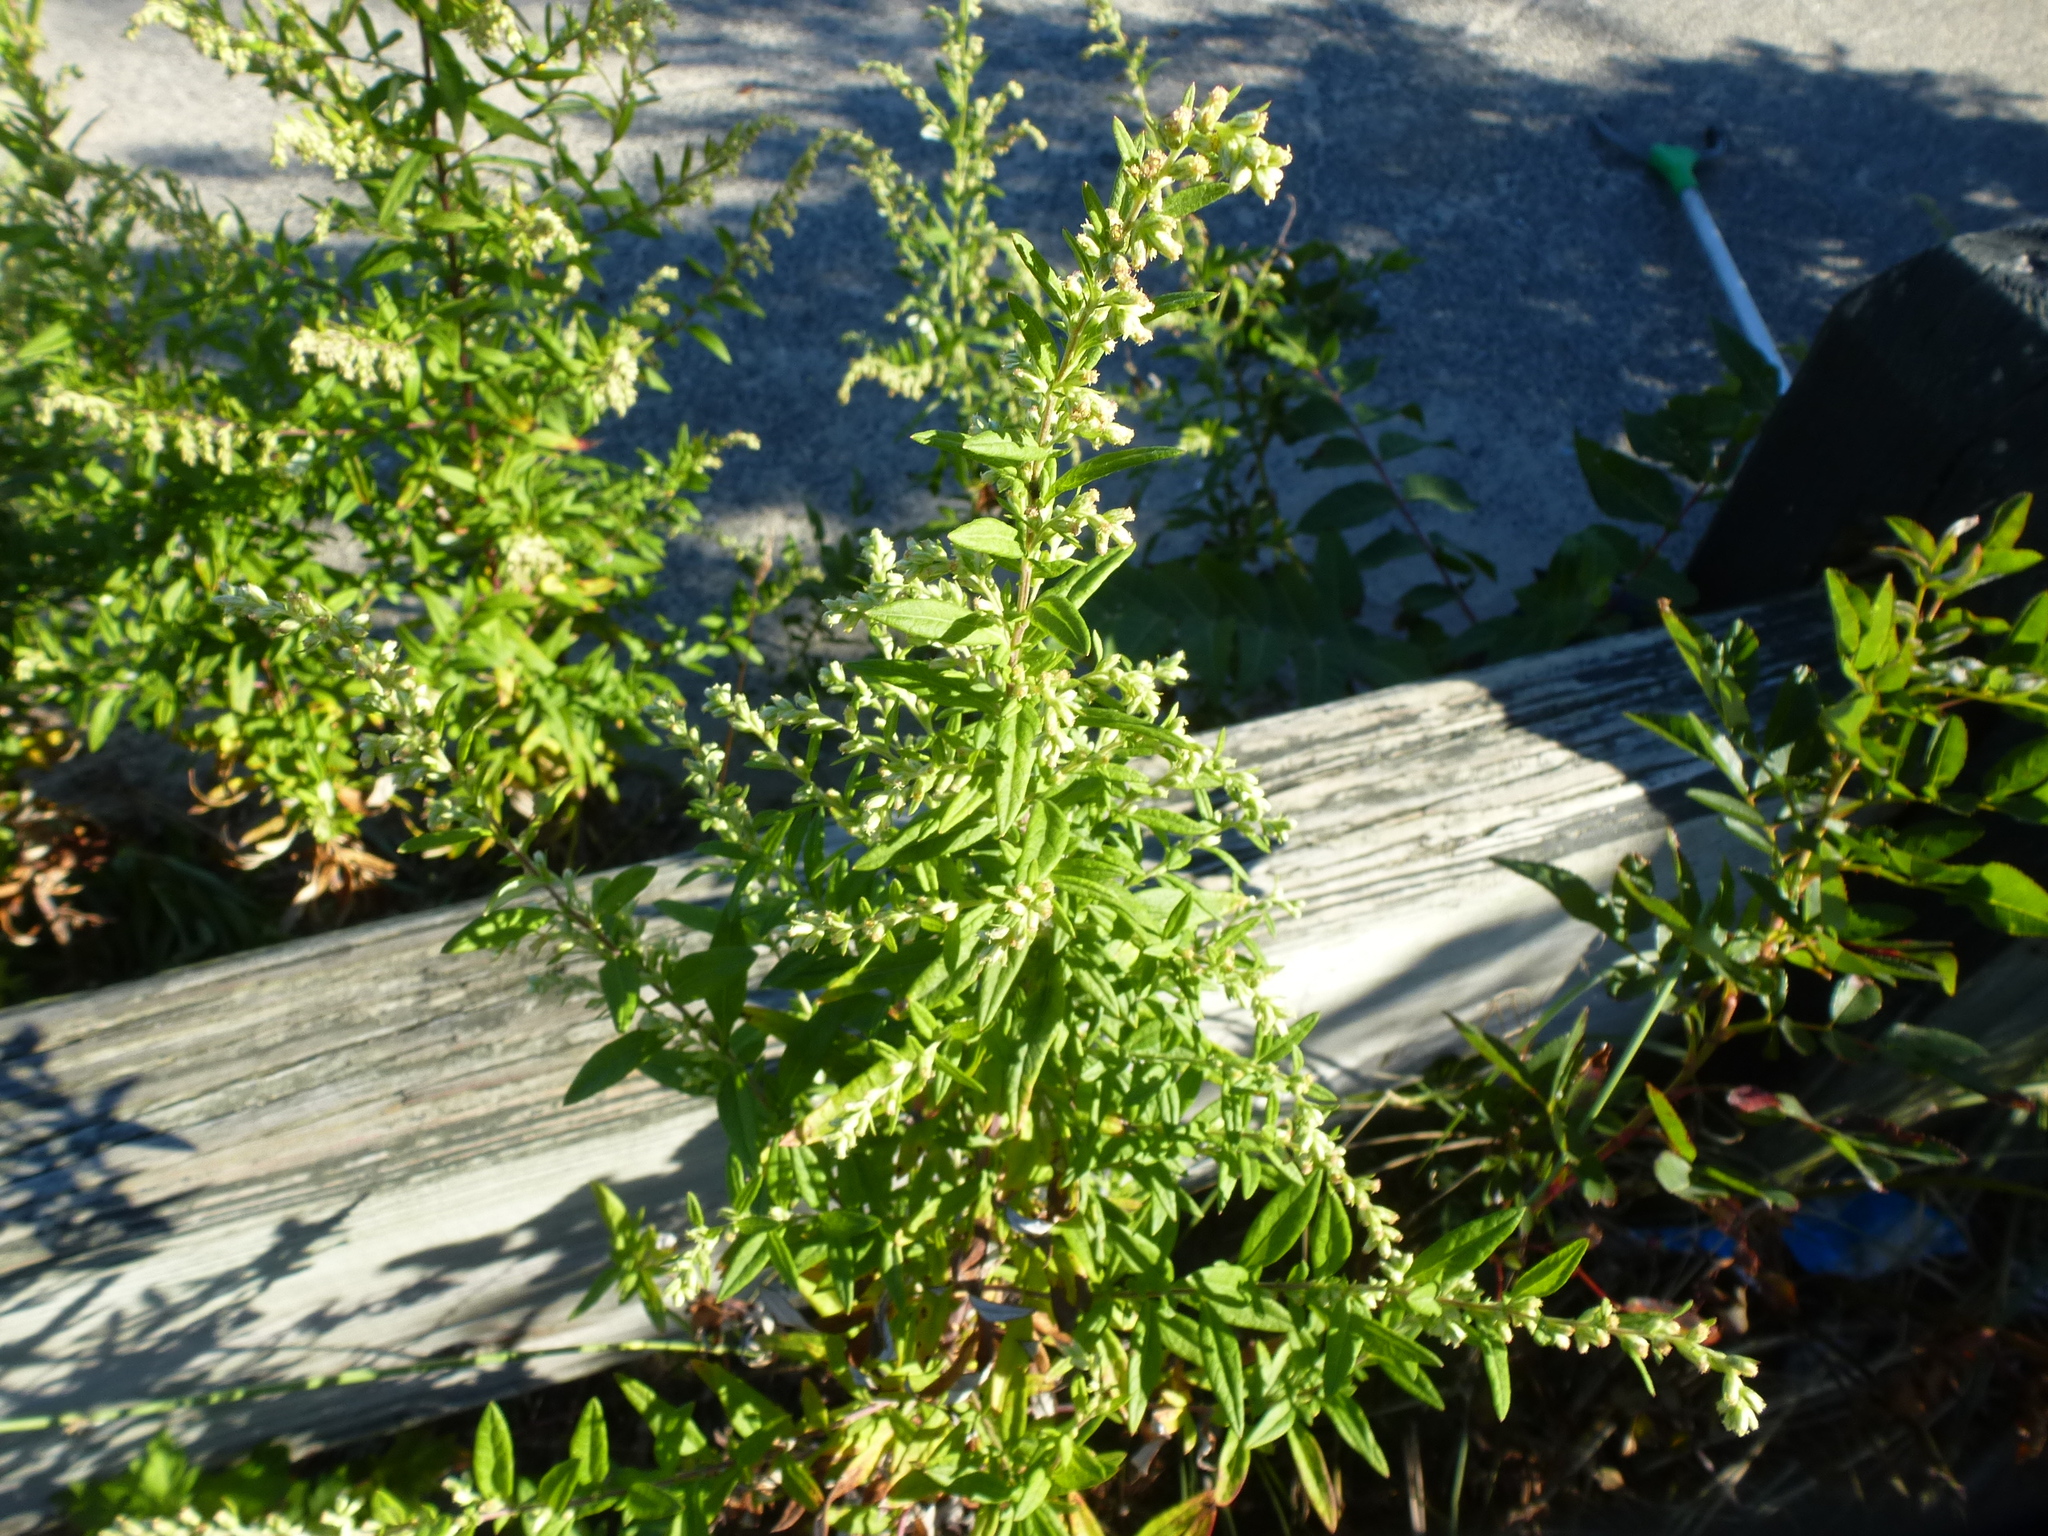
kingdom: Plantae
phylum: Tracheophyta
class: Magnoliopsida
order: Asterales
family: Asteraceae
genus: Artemisia
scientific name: Artemisia vulgaris
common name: Mugwort
